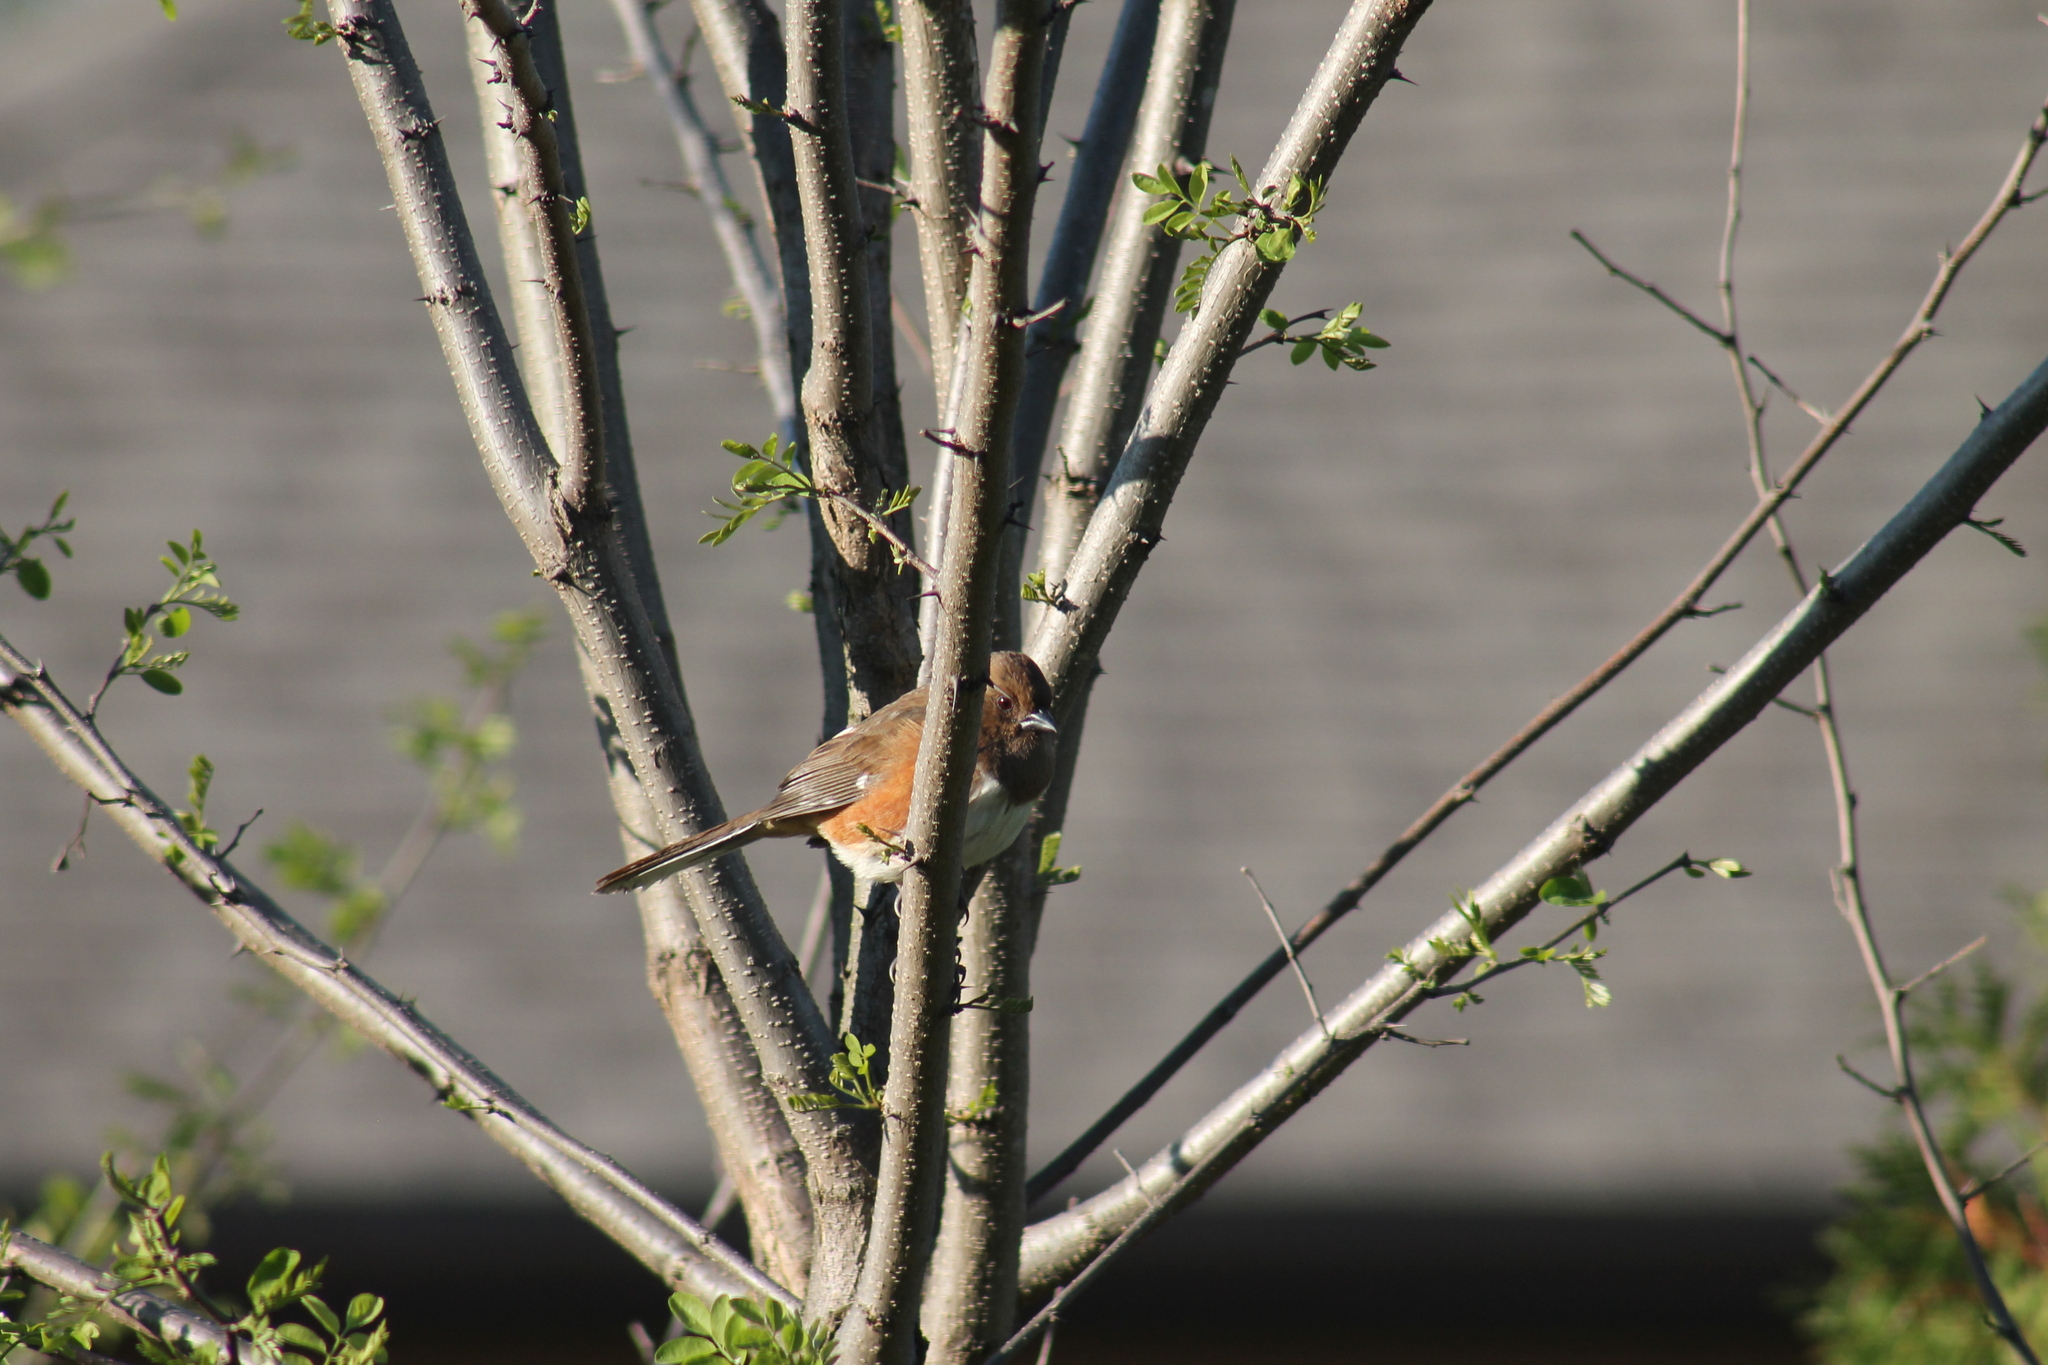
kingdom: Animalia
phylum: Chordata
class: Aves
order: Passeriformes
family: Passerellidae
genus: Pipilo
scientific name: Pipilo erythrophthalmus
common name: Eastern towhee
